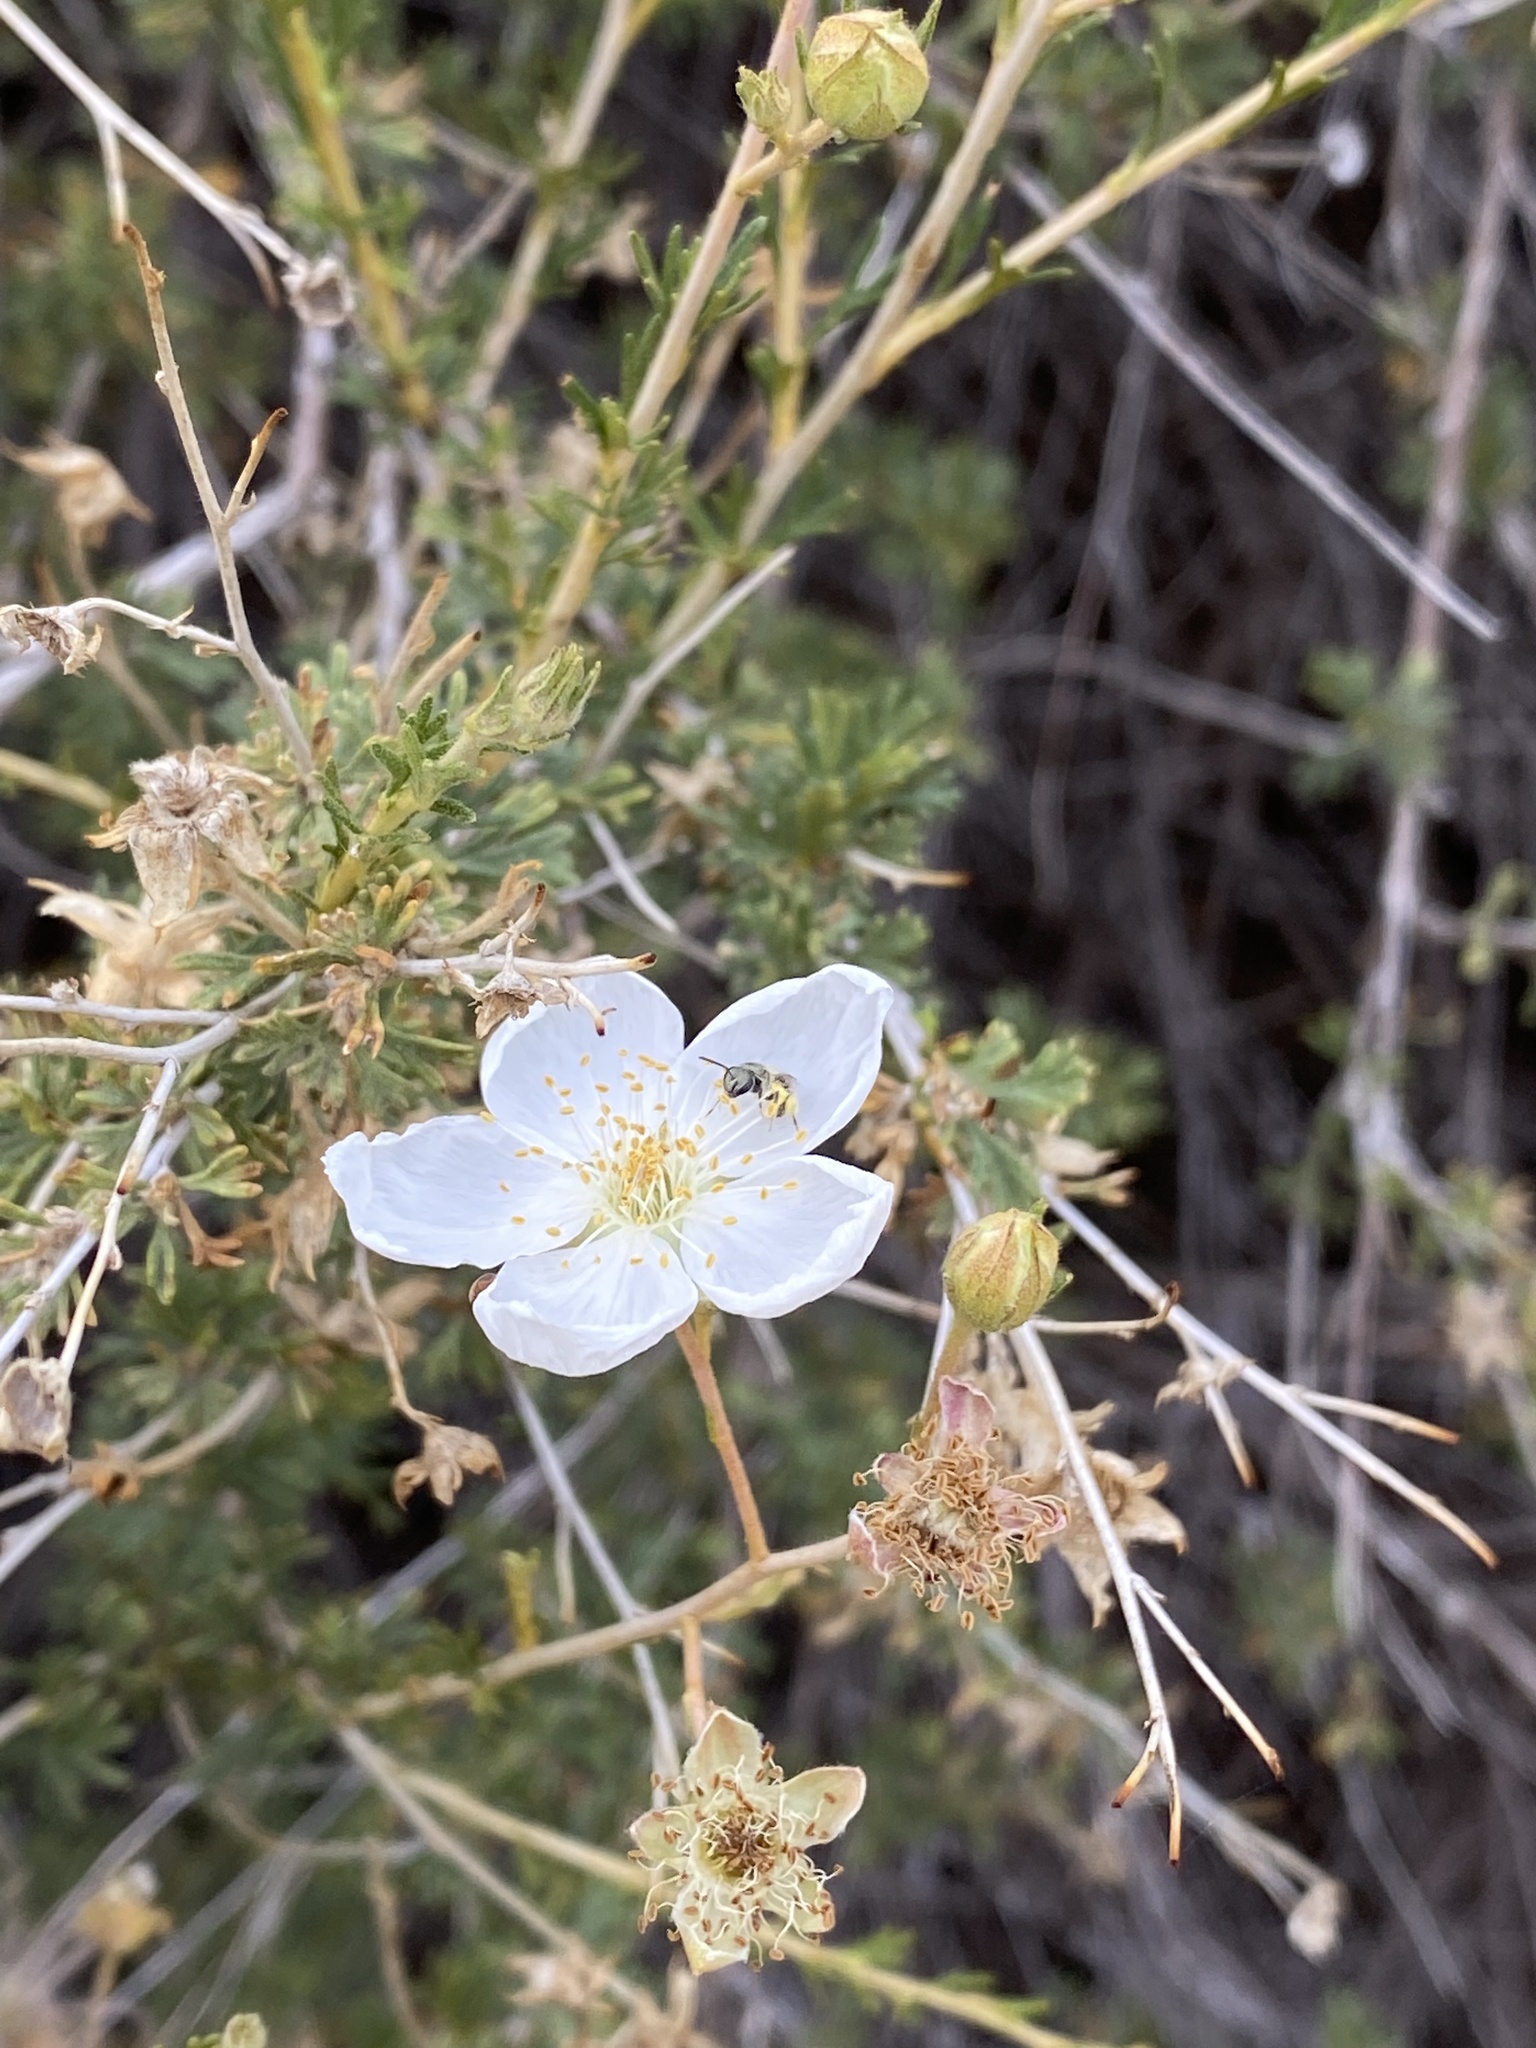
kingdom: Plantae
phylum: Tracheophyta
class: Magnoliopsida
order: Rosales
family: Rosaceae
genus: Fallugia
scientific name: Fallugia paradoxa
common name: Apache-plume
